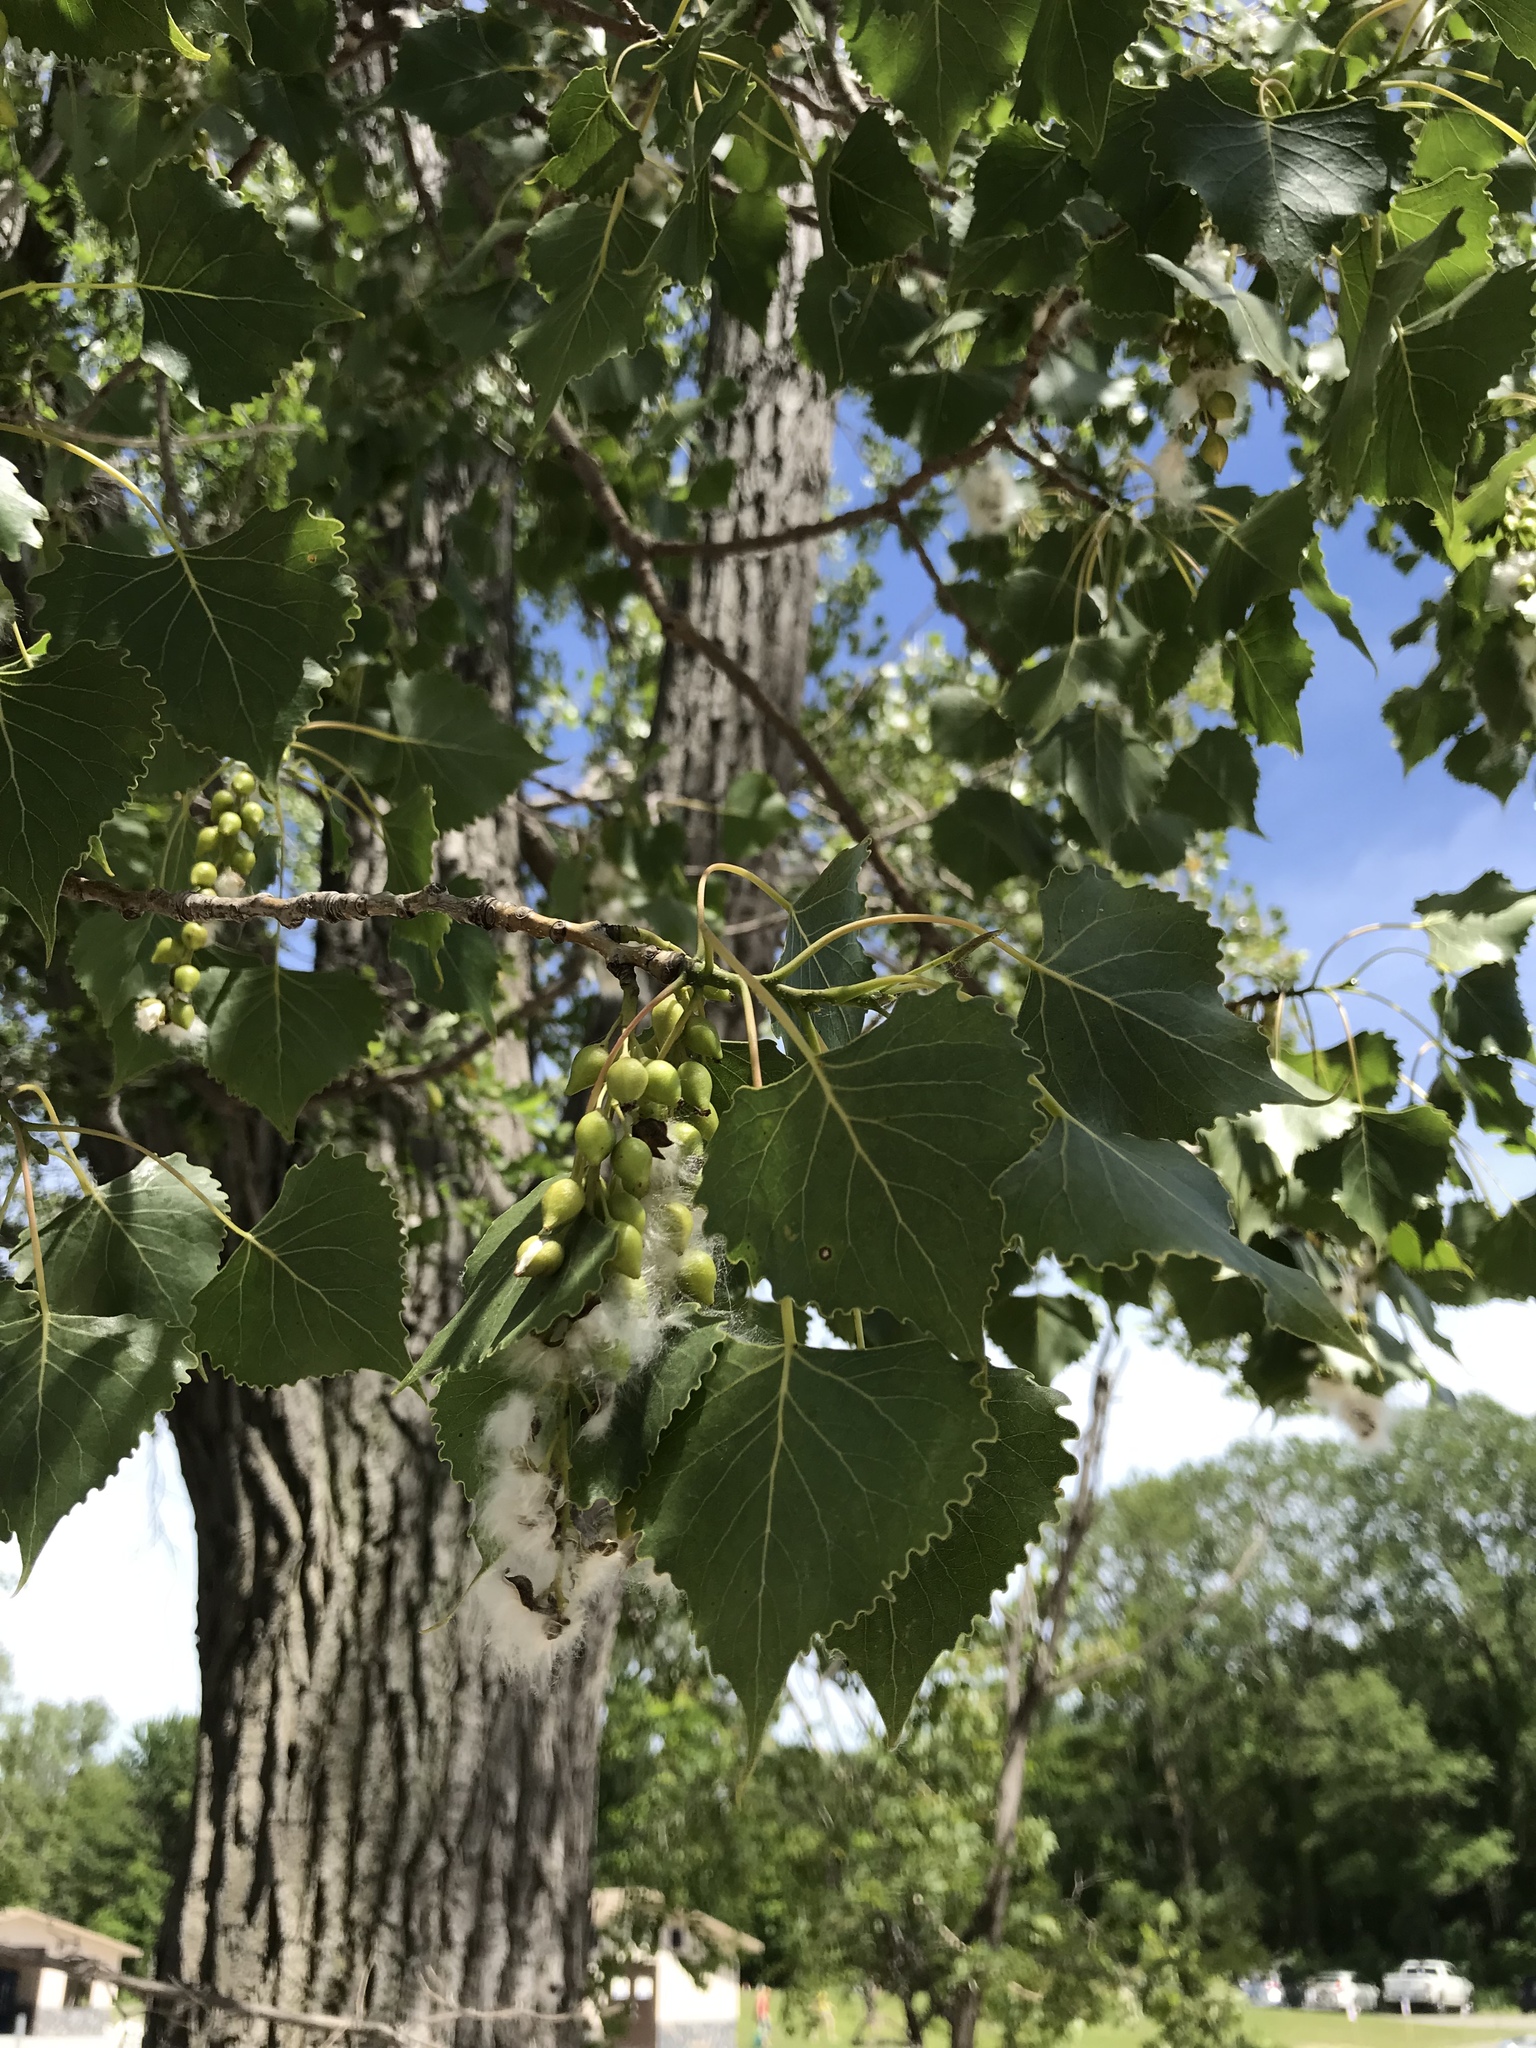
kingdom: Plantae
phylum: Tracheophyta
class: Magnoliopsida
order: Malpighiales
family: Salicaceae
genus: Populus
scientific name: Populus deltoides
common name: Eastern cottonwood
